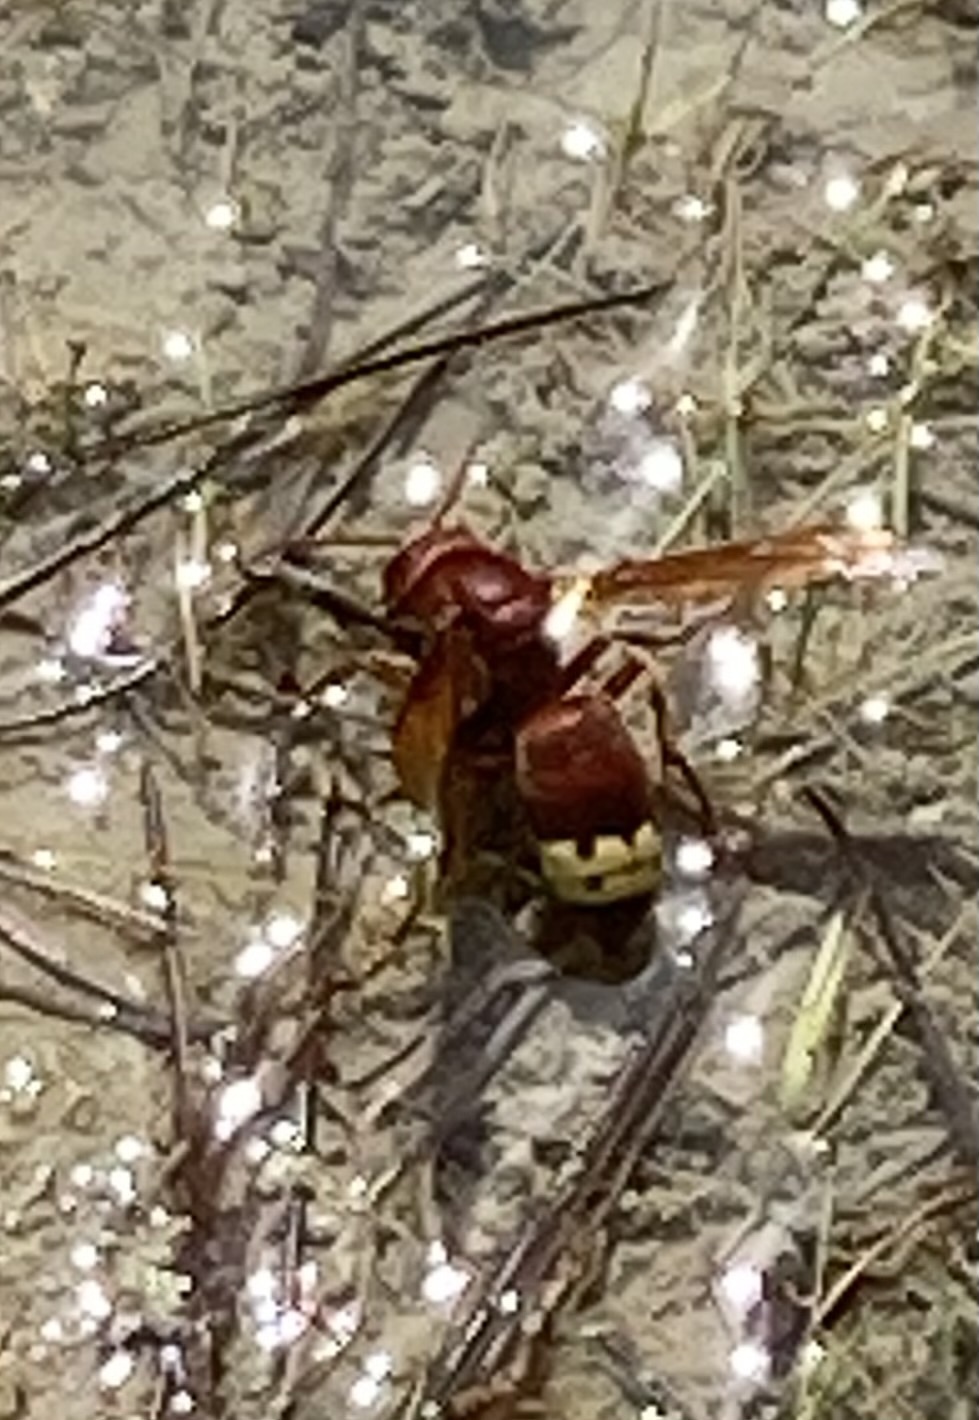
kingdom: Animalia
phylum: Arthropoda
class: Insecta
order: Hymenoptera
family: Vespidae
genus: Vespa
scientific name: Vespa orientalis
